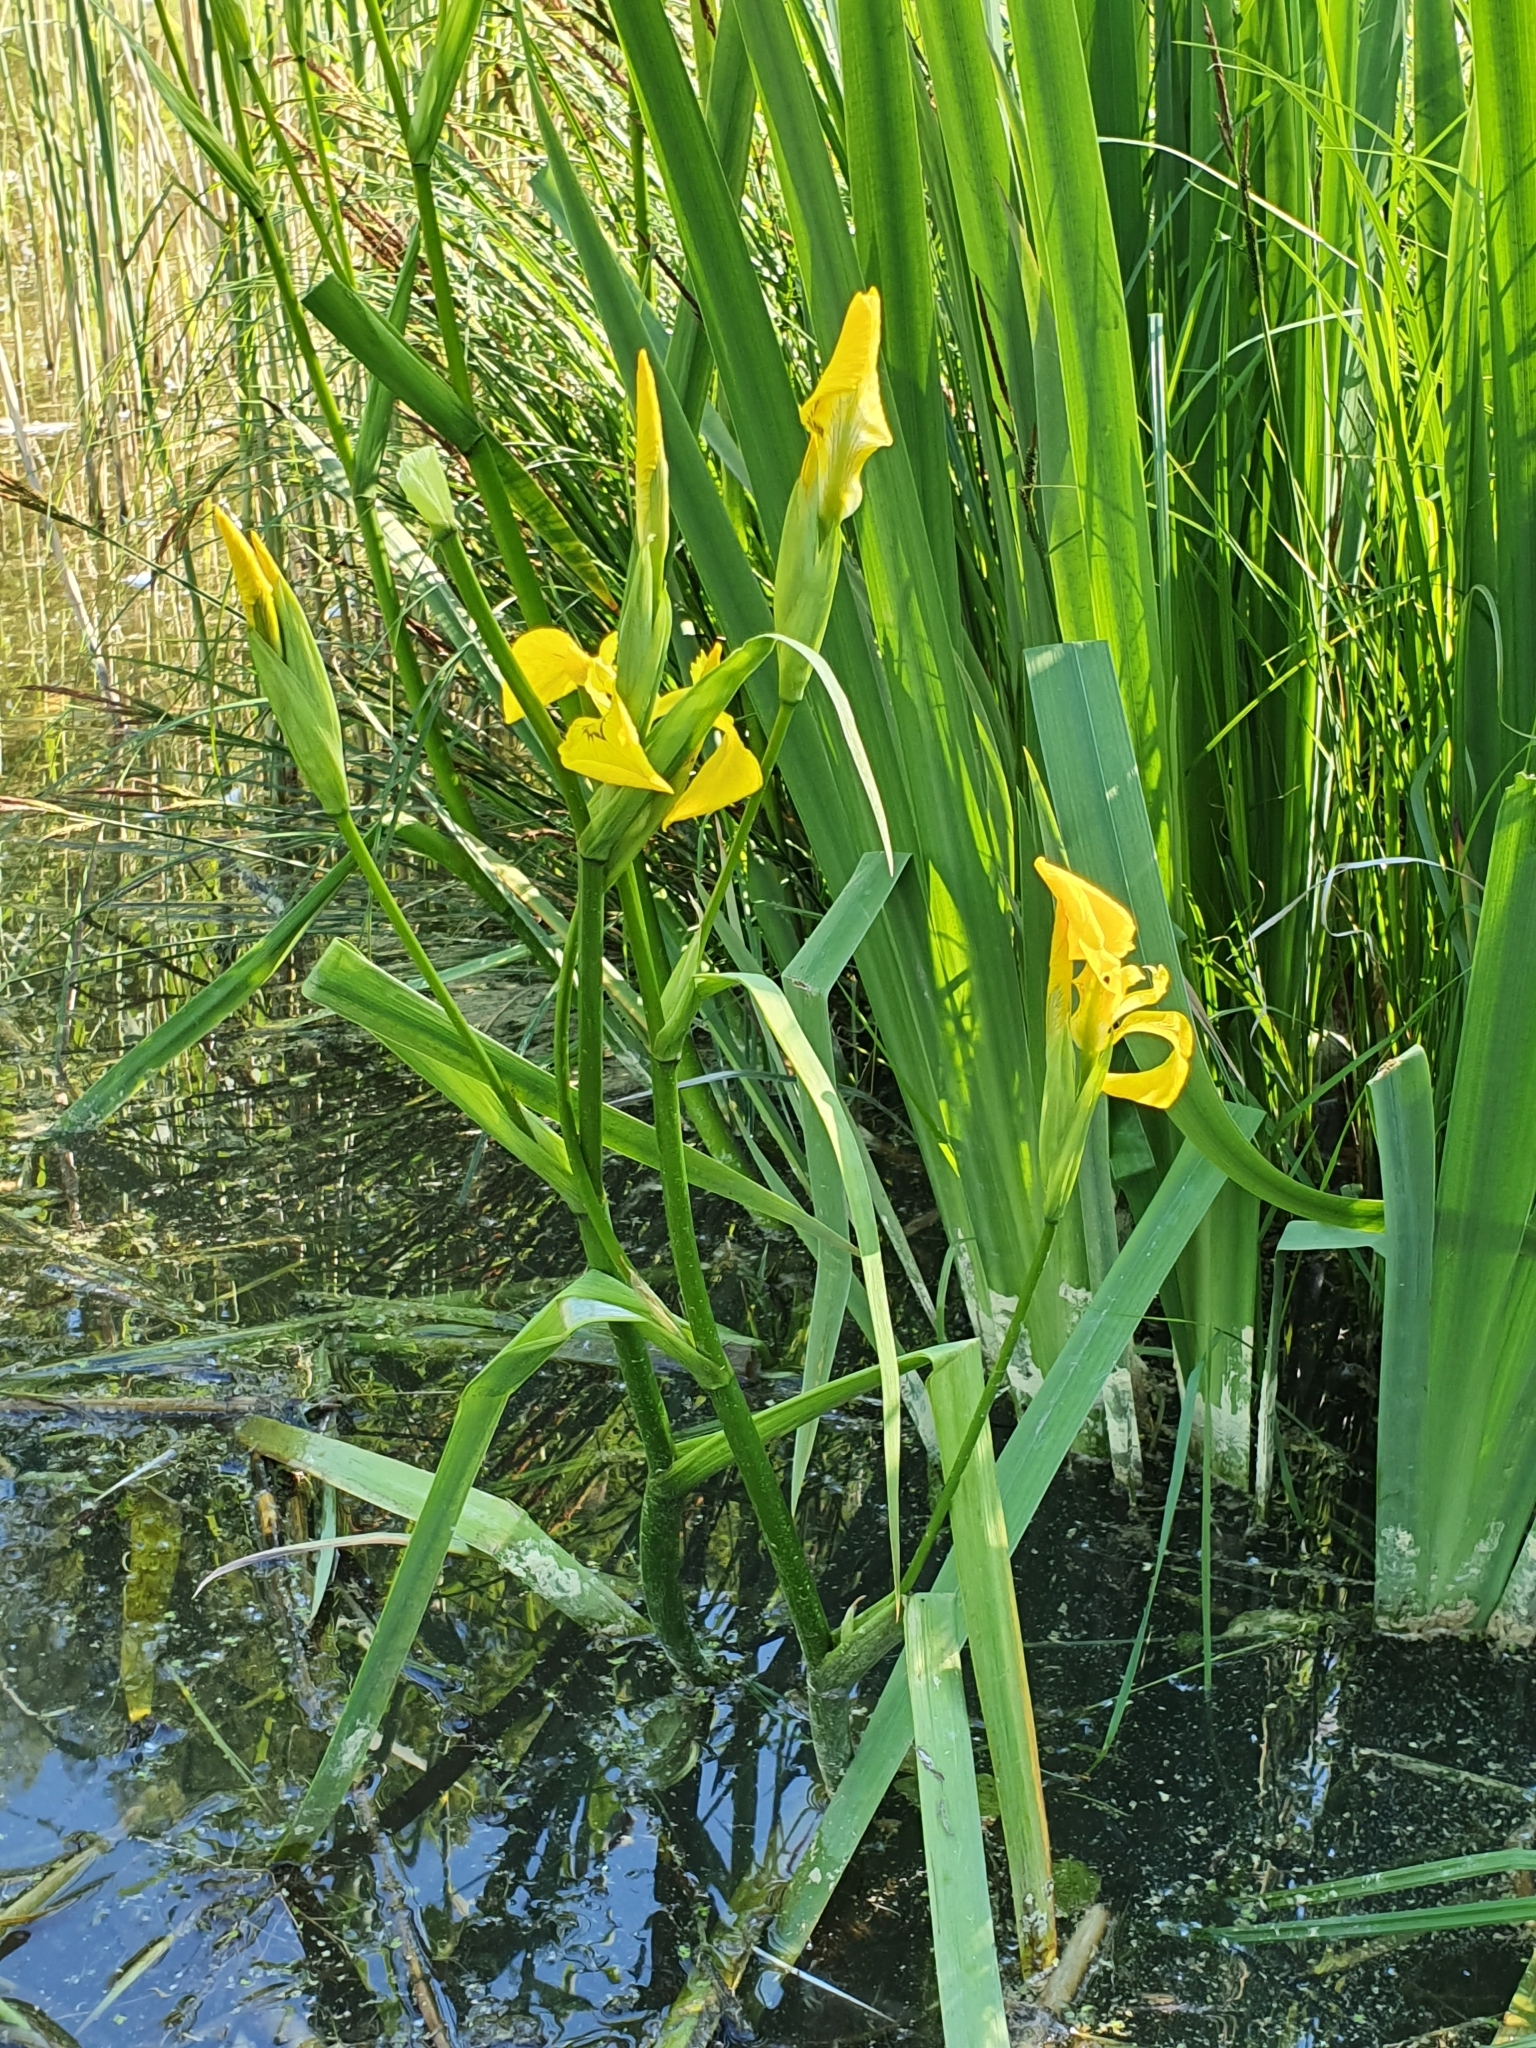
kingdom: Plantae
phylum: Tracheophyta
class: Liliopsida
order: Asparagales
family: Iridaceae
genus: Iris
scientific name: Iris pseudacorus
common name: Yellow flag
